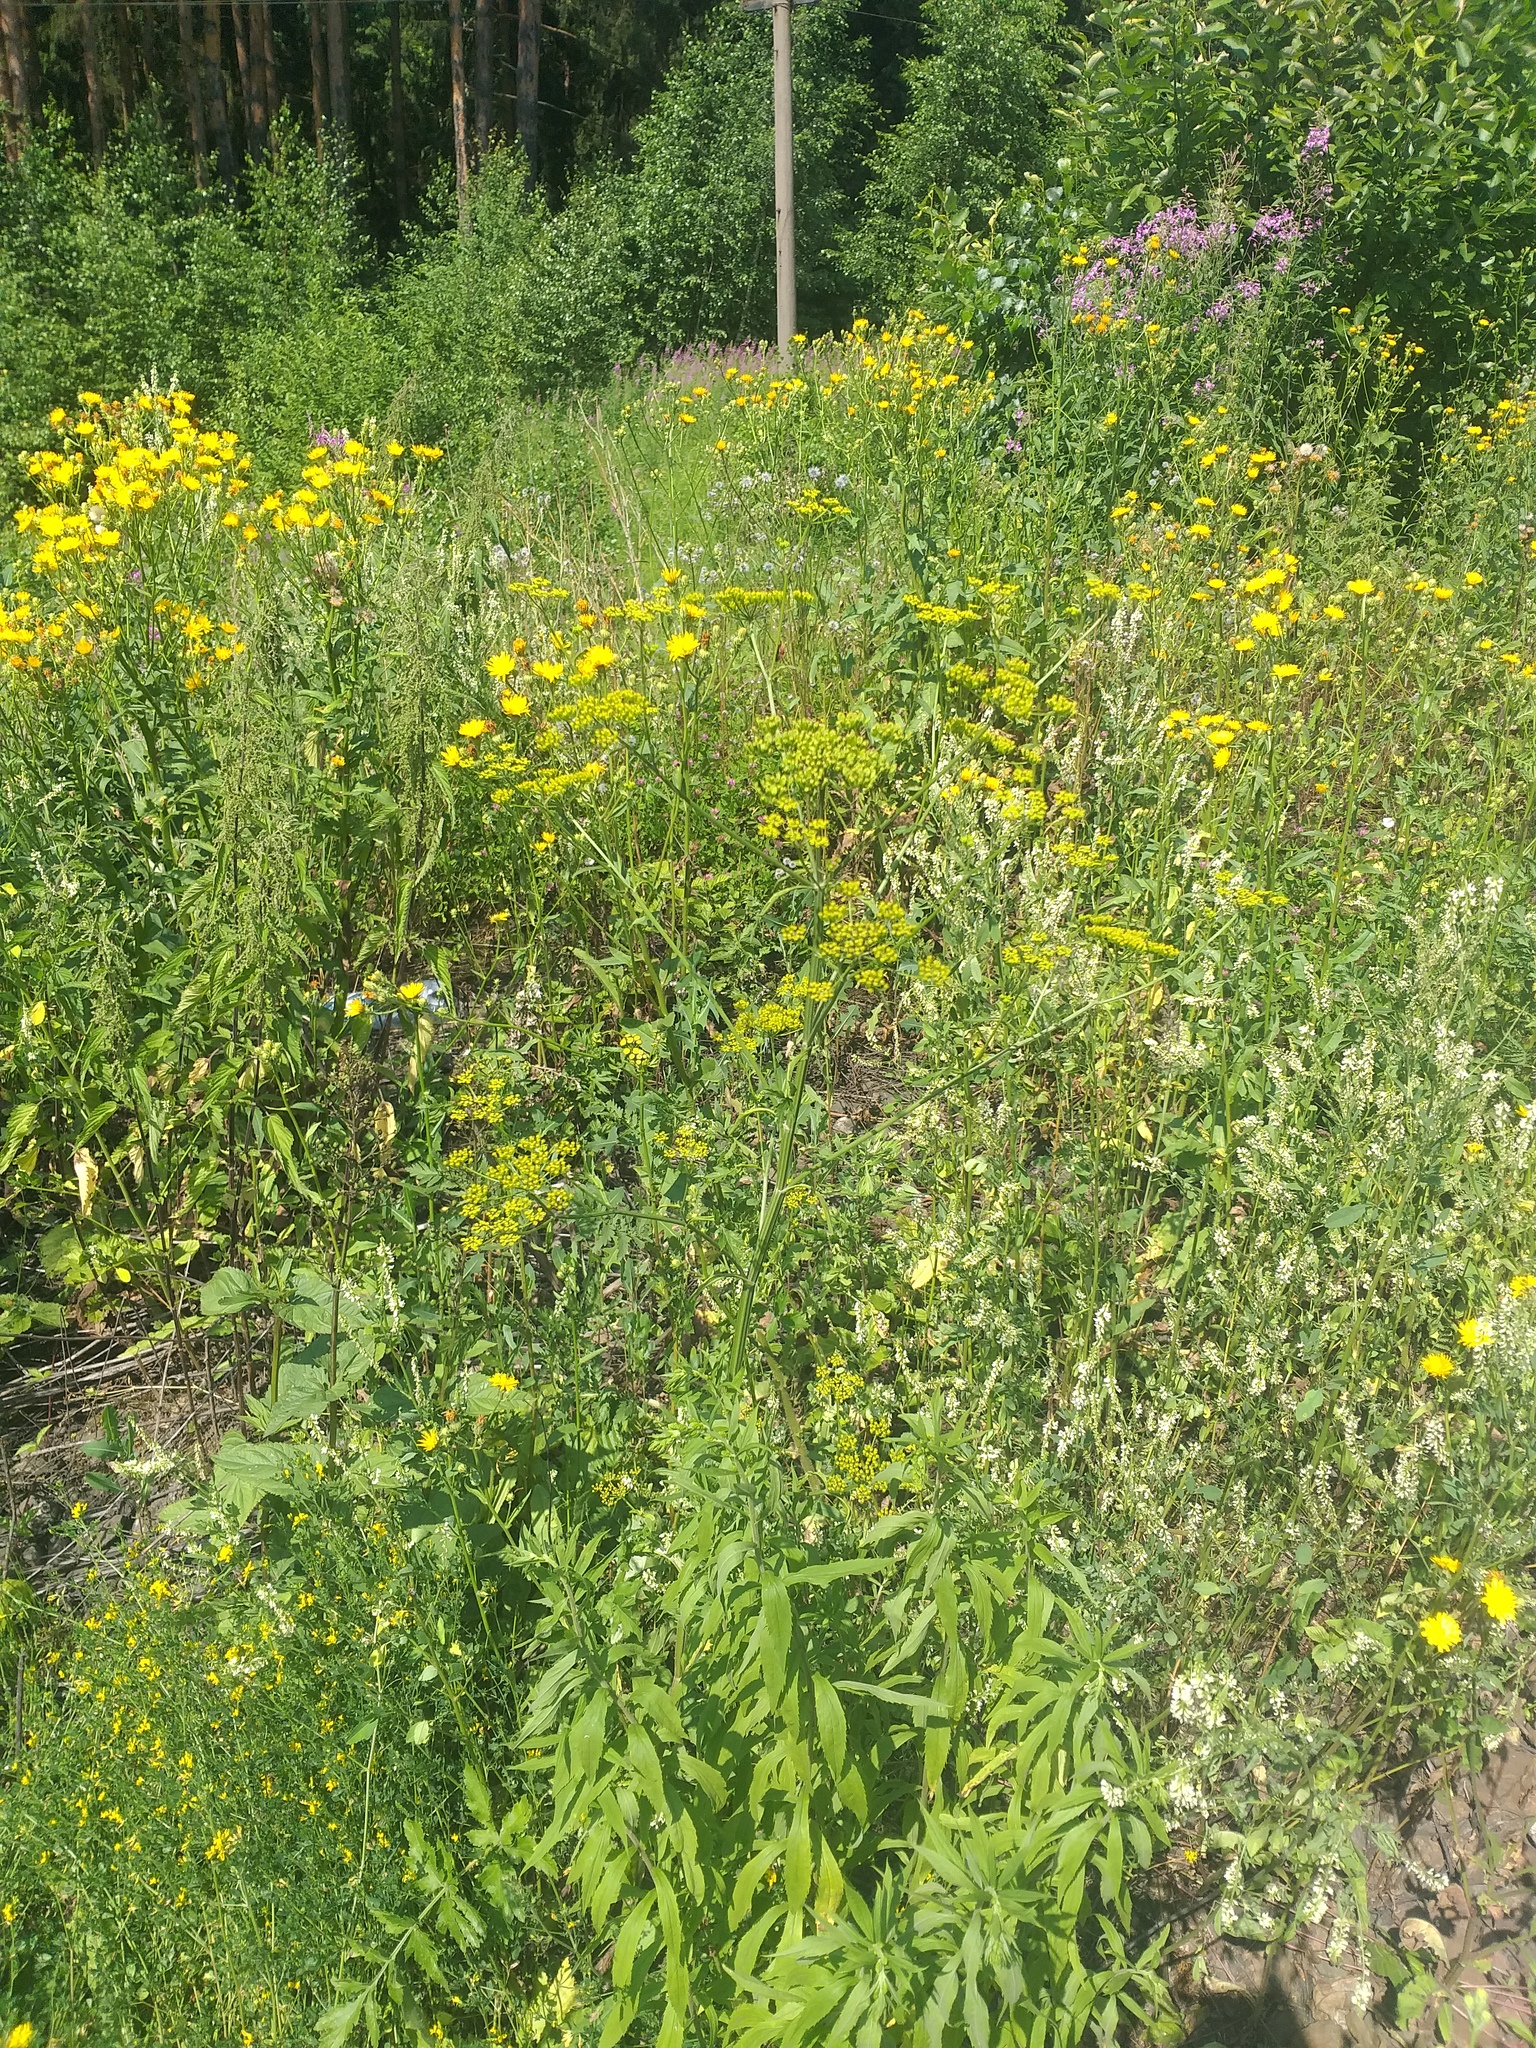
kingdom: Plantae
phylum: Tracheophyta
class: Magnoliopsida
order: Apiales
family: Apiaceae
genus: Pastinaca
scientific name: Pastinaca sativa
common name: Wild parsnip
